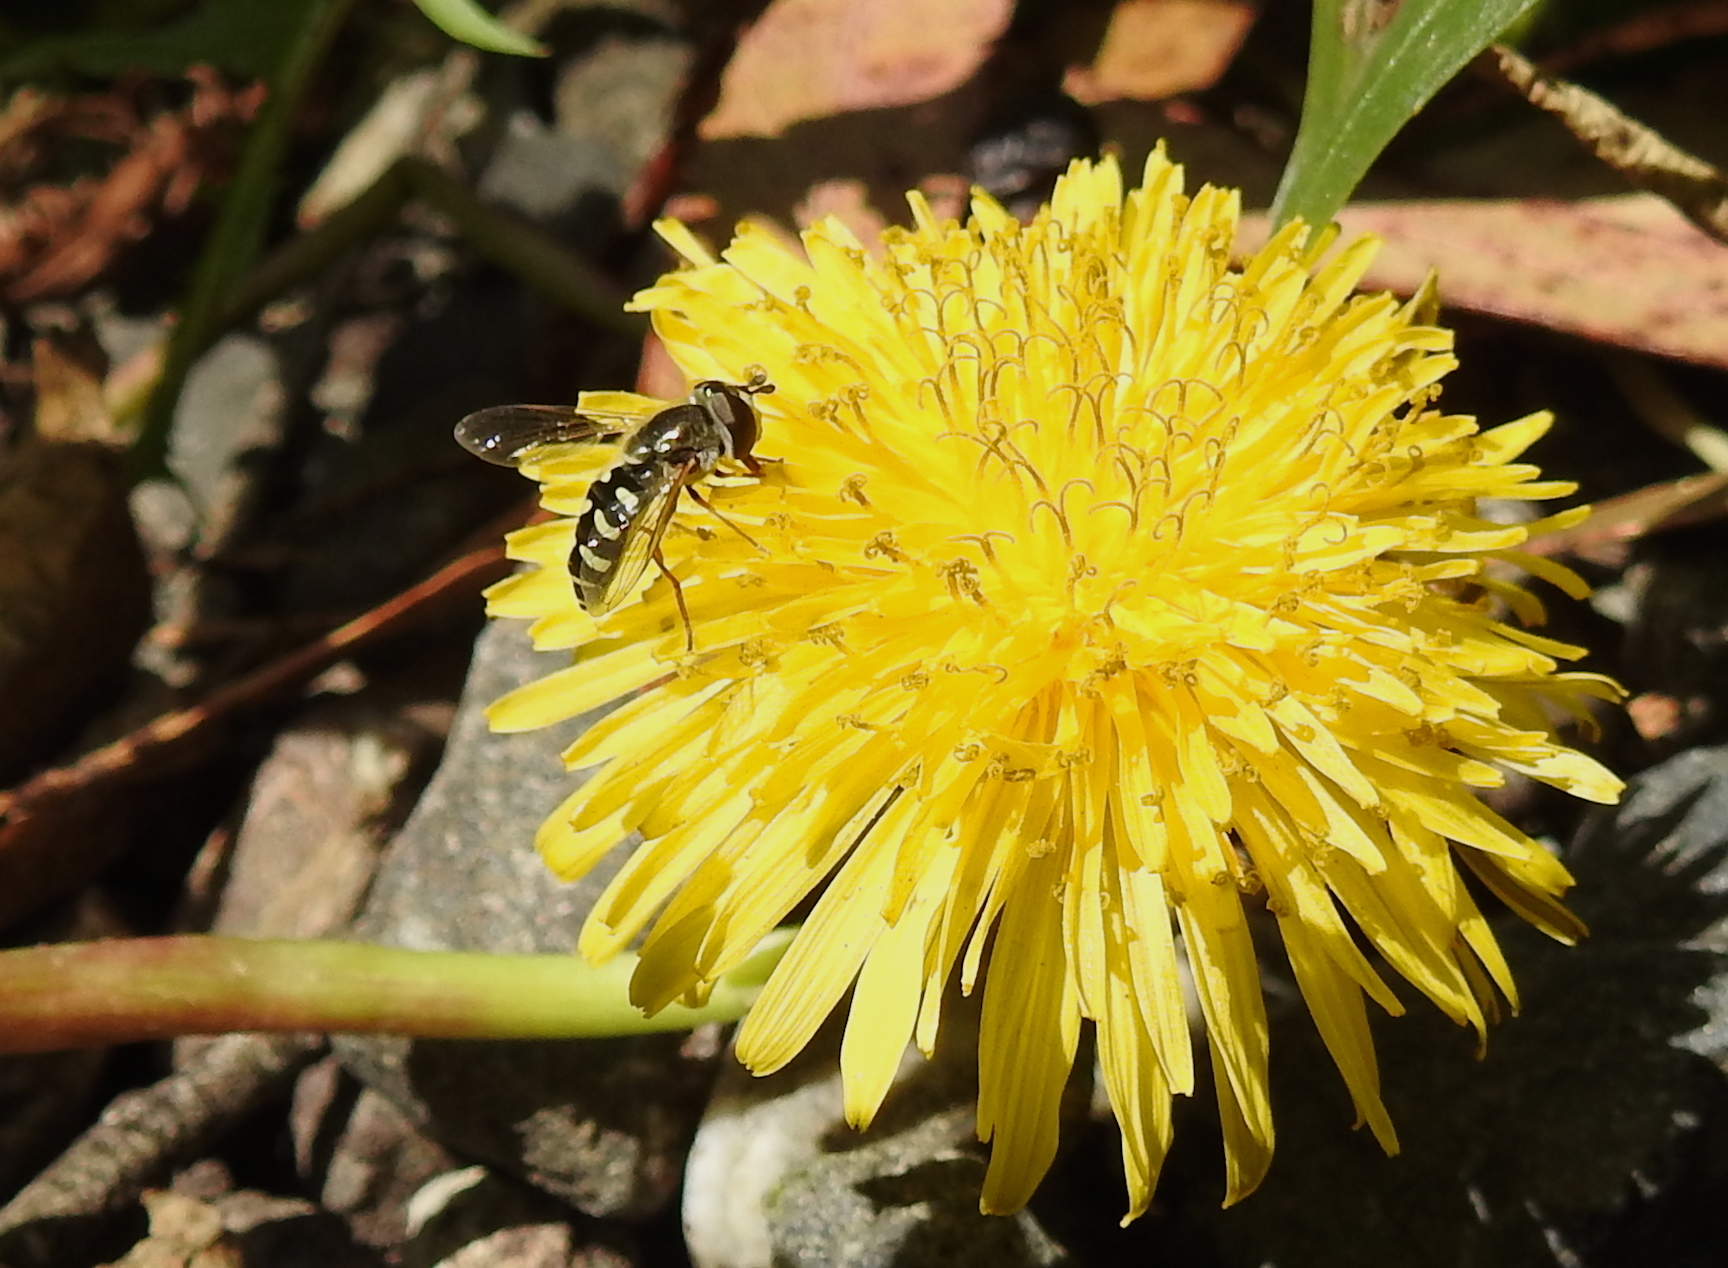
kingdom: Animalia
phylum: Arthropoda
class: Insecta
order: Diptera
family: Syrphidae
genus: Eupeodes
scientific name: Eupeodes volucris
